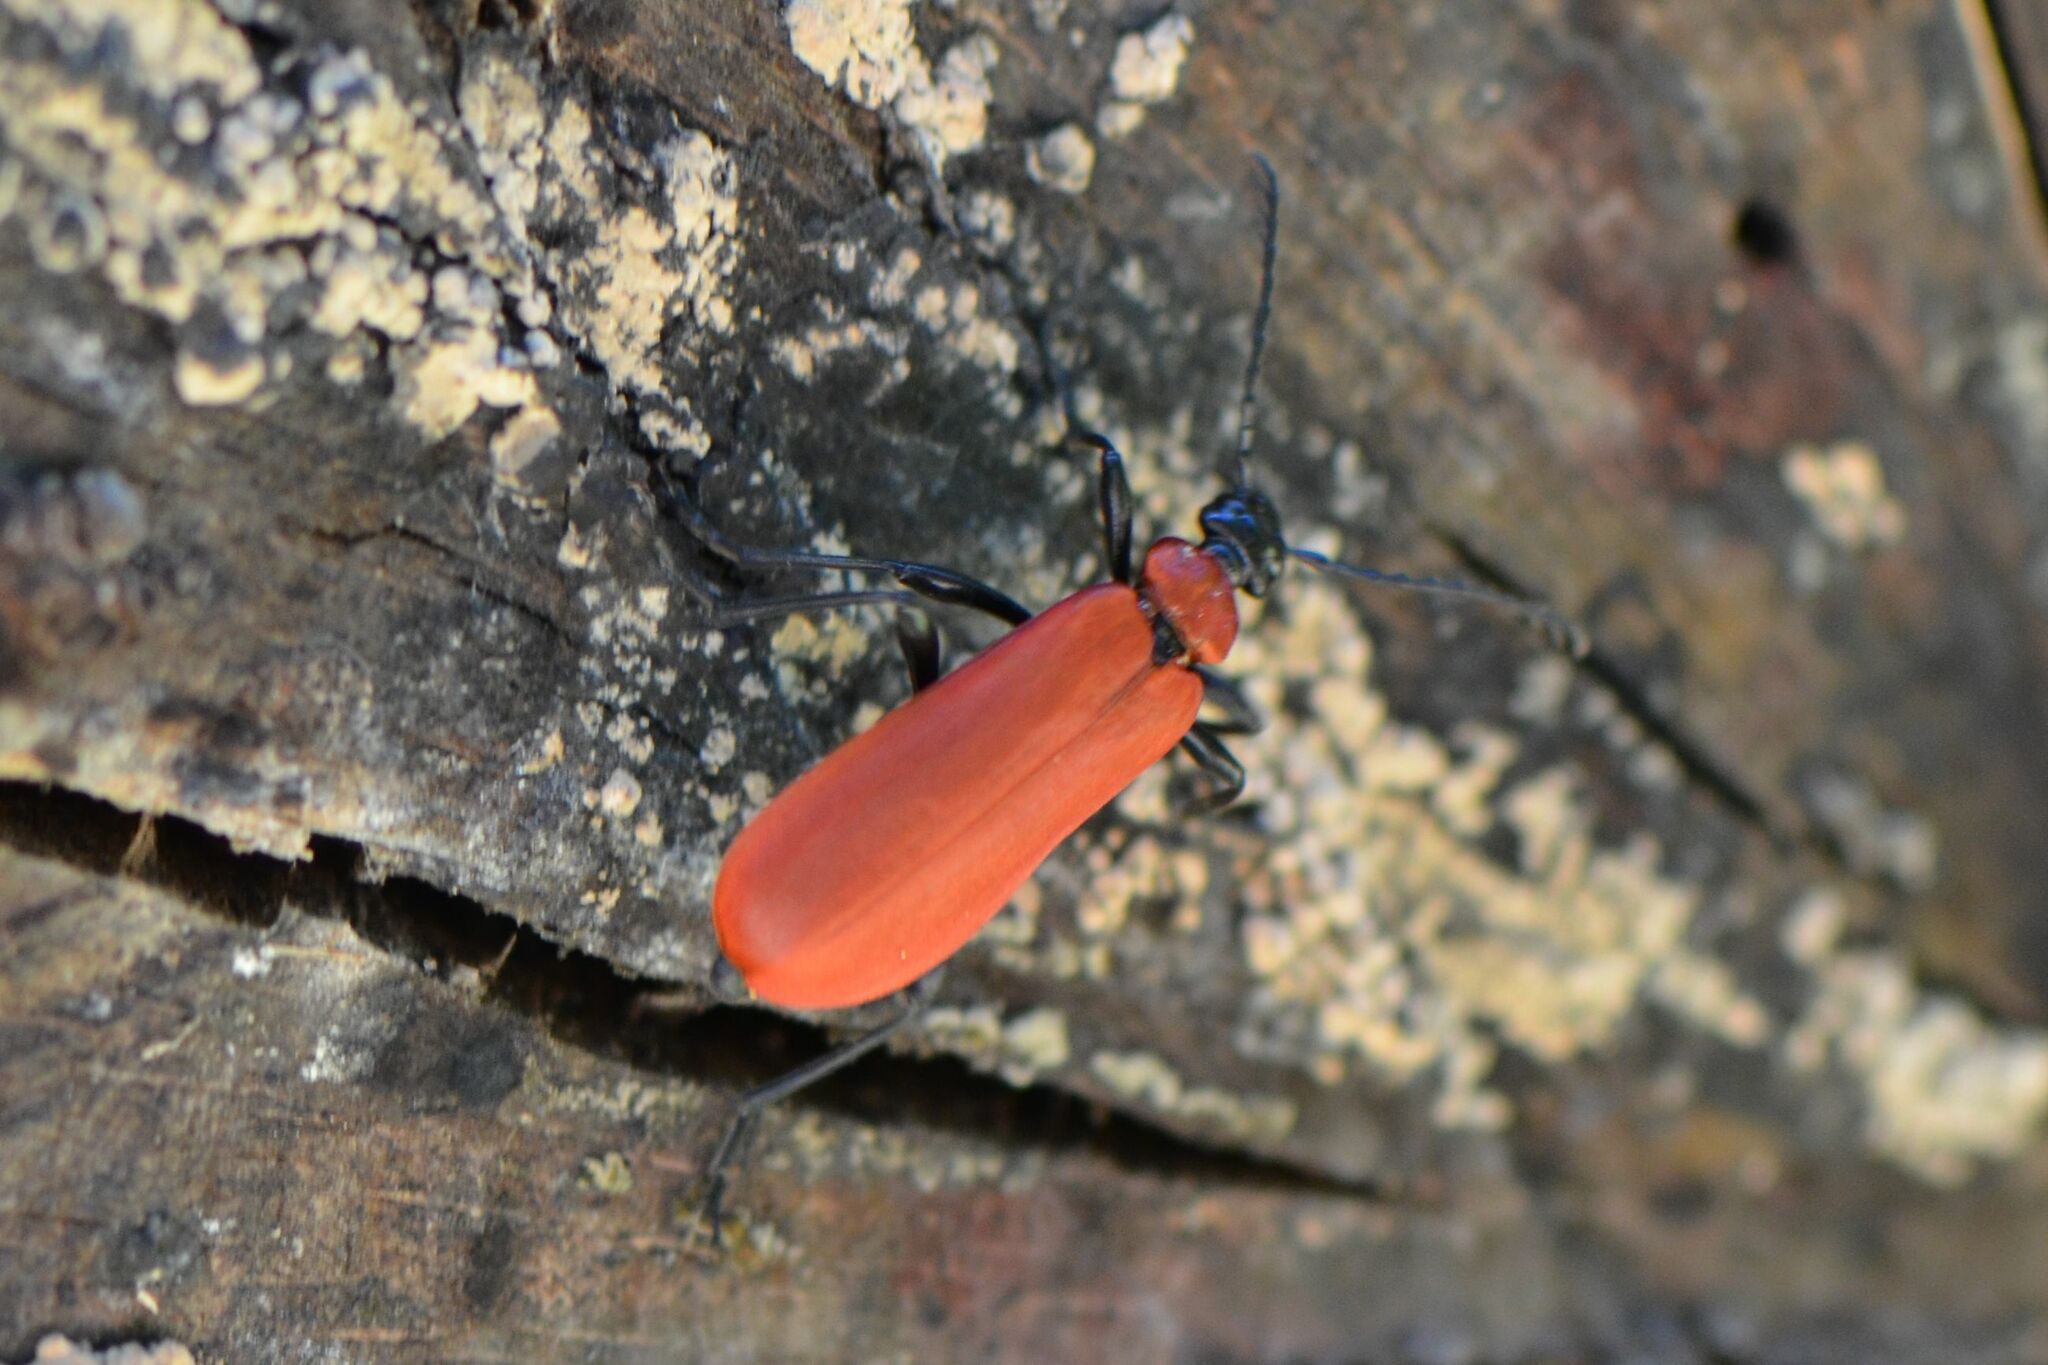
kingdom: Animalia
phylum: Arthropoda
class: Insecta
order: Coleoptera
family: Pyrochroidae
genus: Pyrochroa
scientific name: Pyrochroa coccinea
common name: Black-headed cardinal beetle
